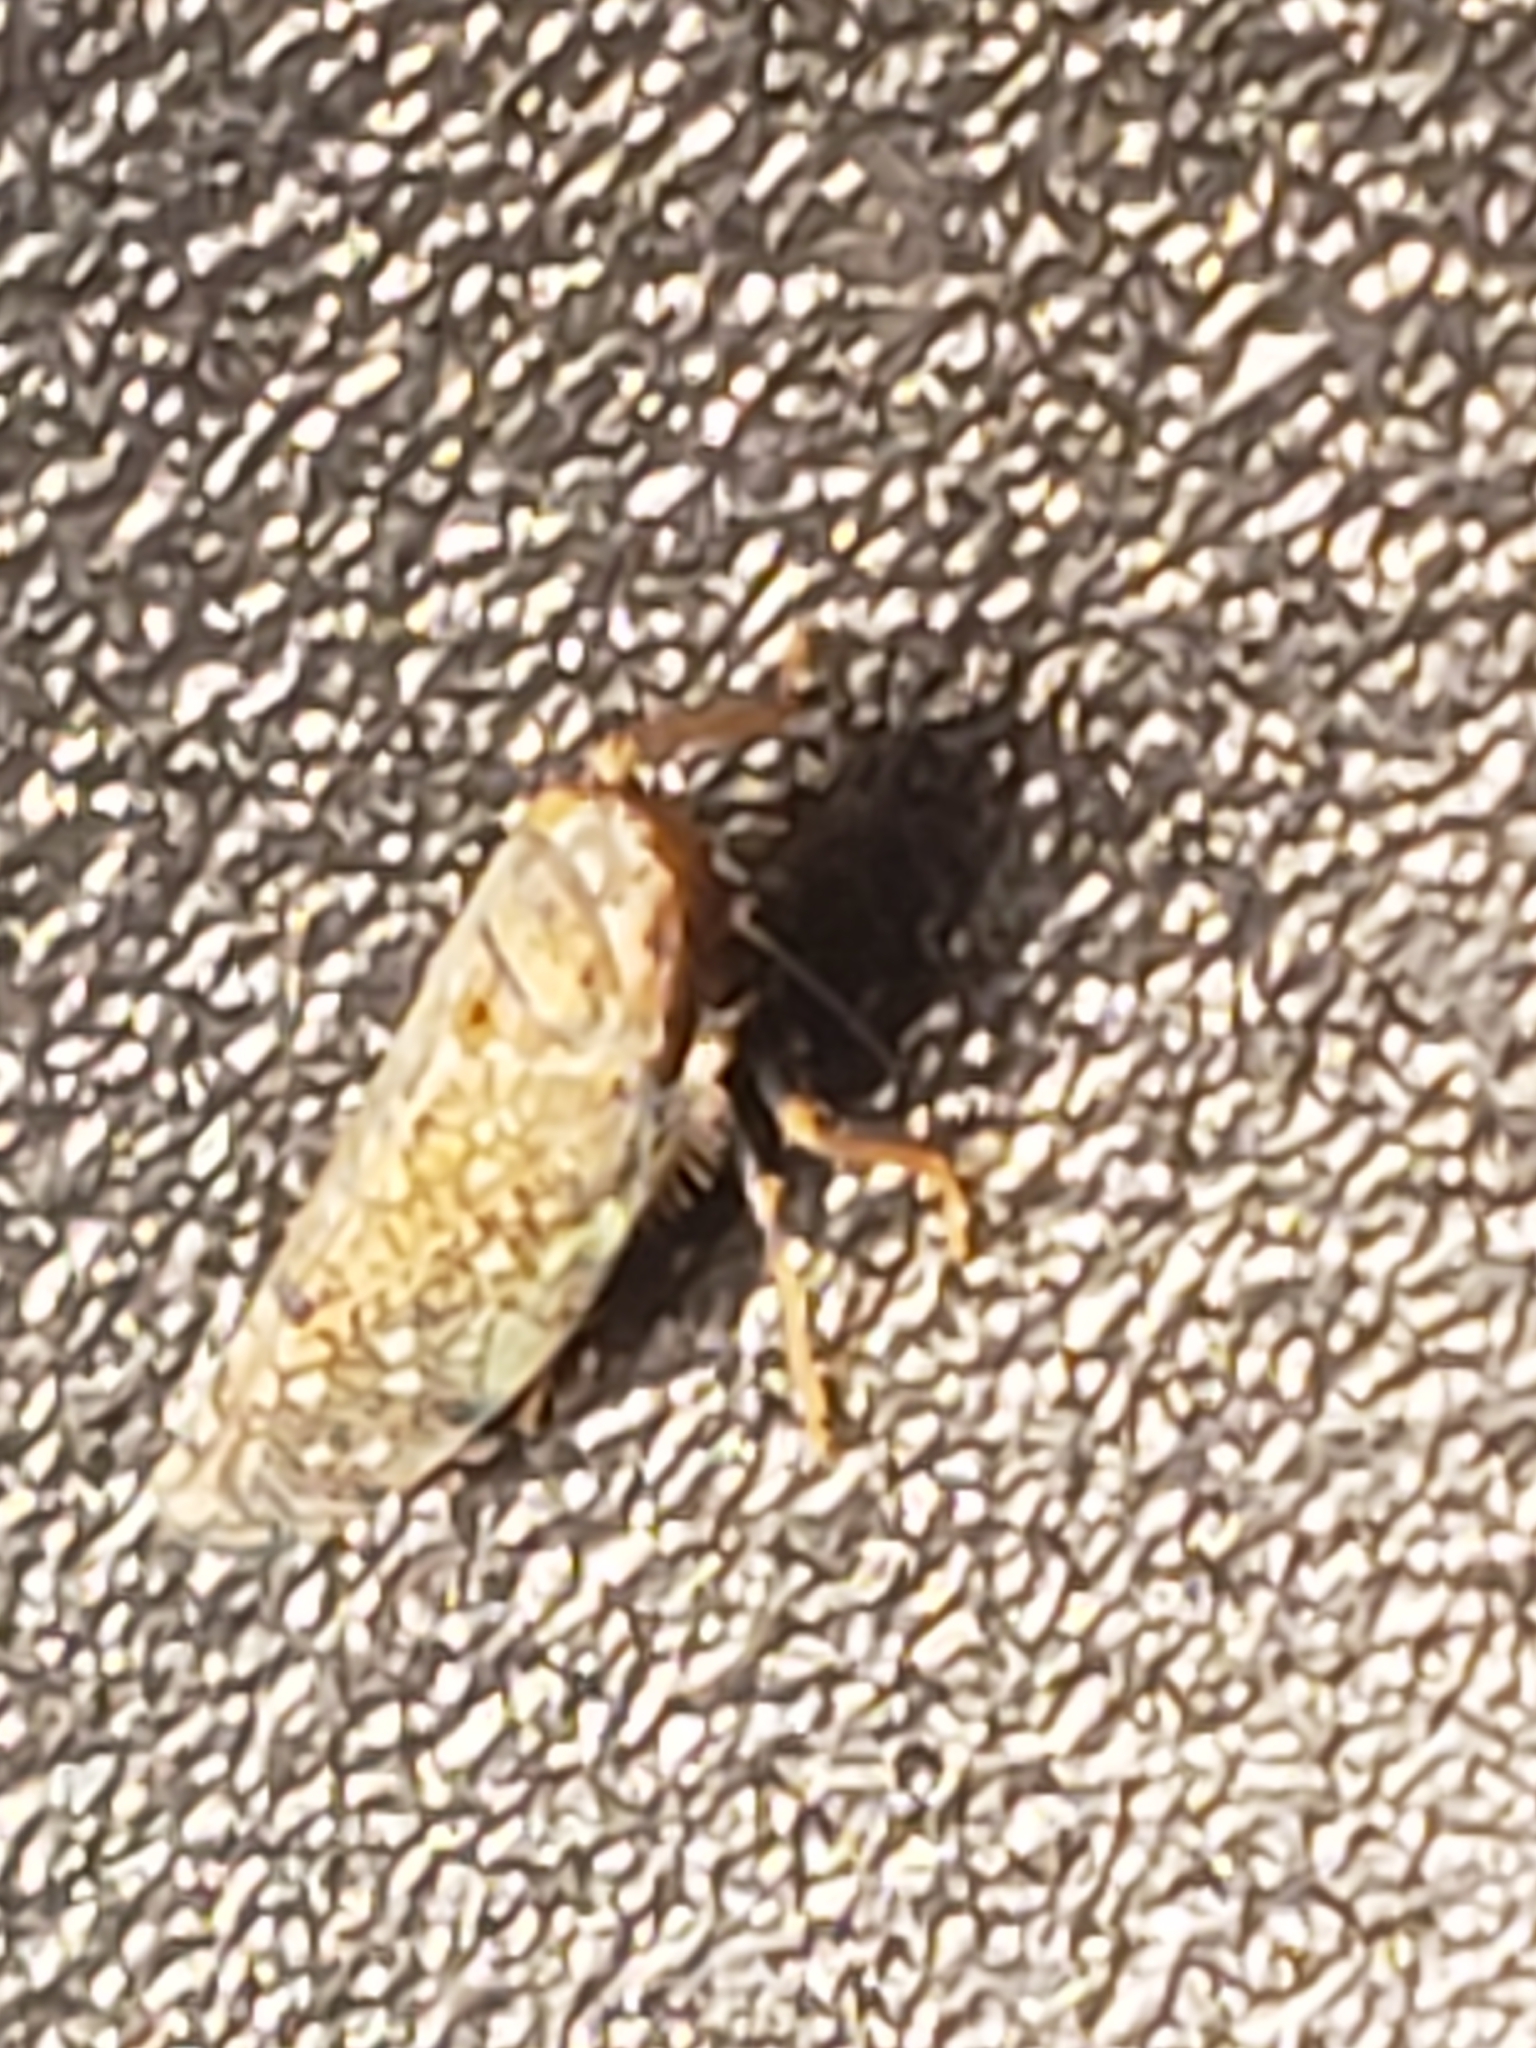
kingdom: Animalia
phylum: Arthropoda
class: Insecta
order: Hemiptera
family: Cicadellidae
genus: Orientus
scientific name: Orientus ishidae
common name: Japanese leafhopper
